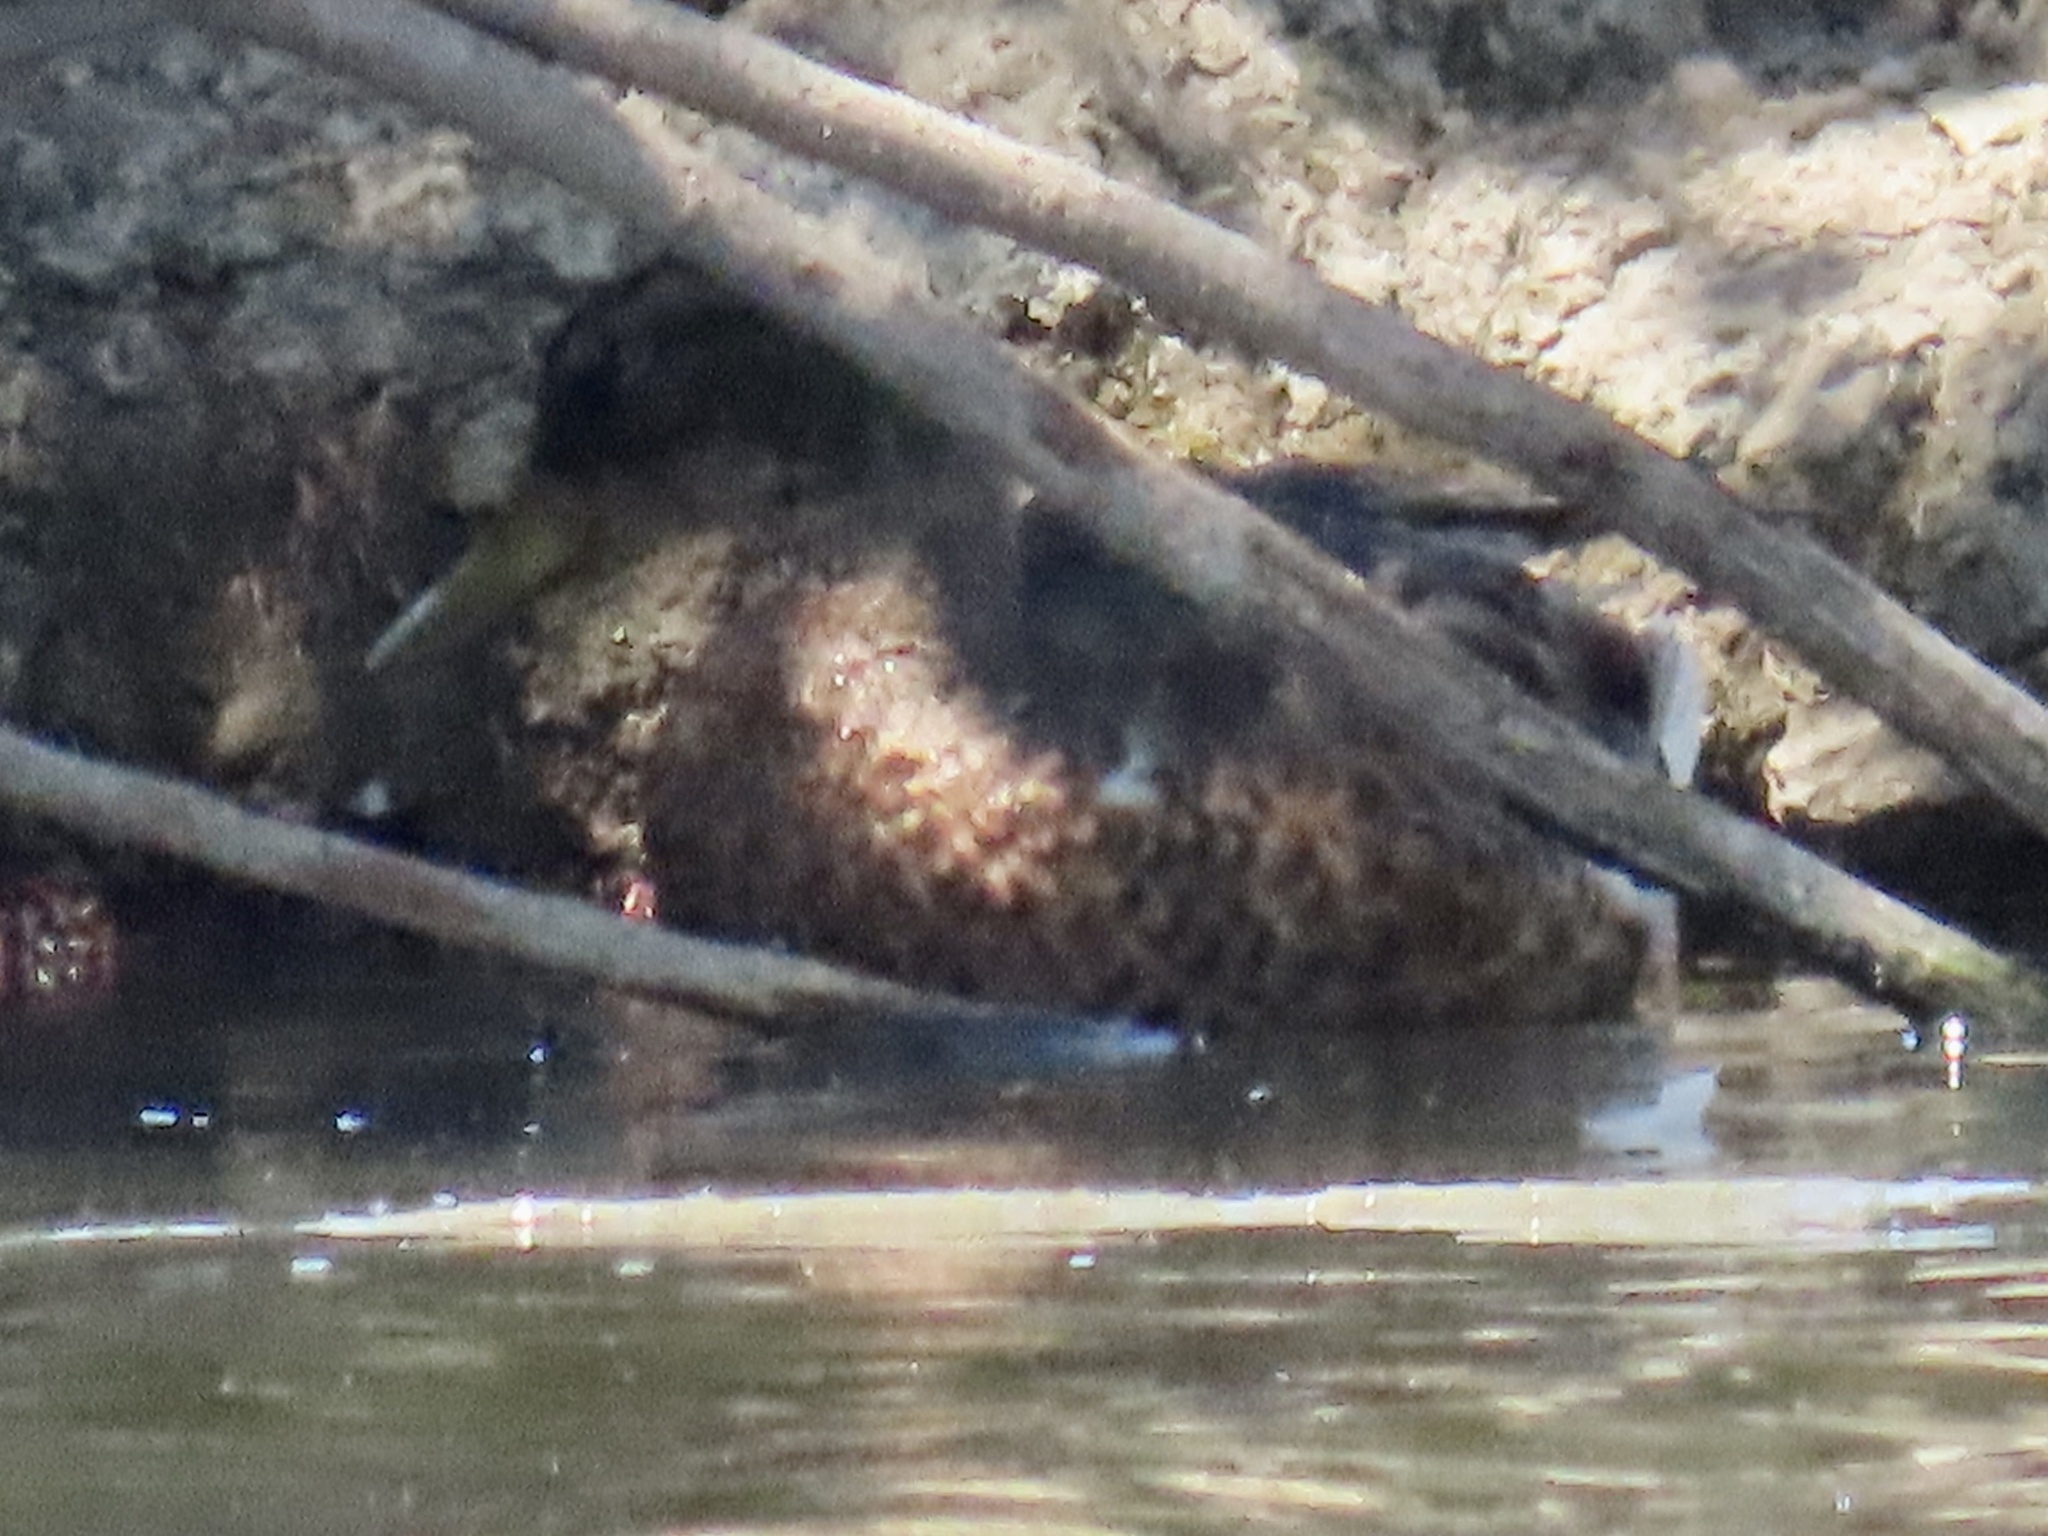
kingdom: Animalia
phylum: Chordata
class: Aves
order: Anseriformes
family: Anatidae
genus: Anas
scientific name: Anas platyrhynchos
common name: Mallard
